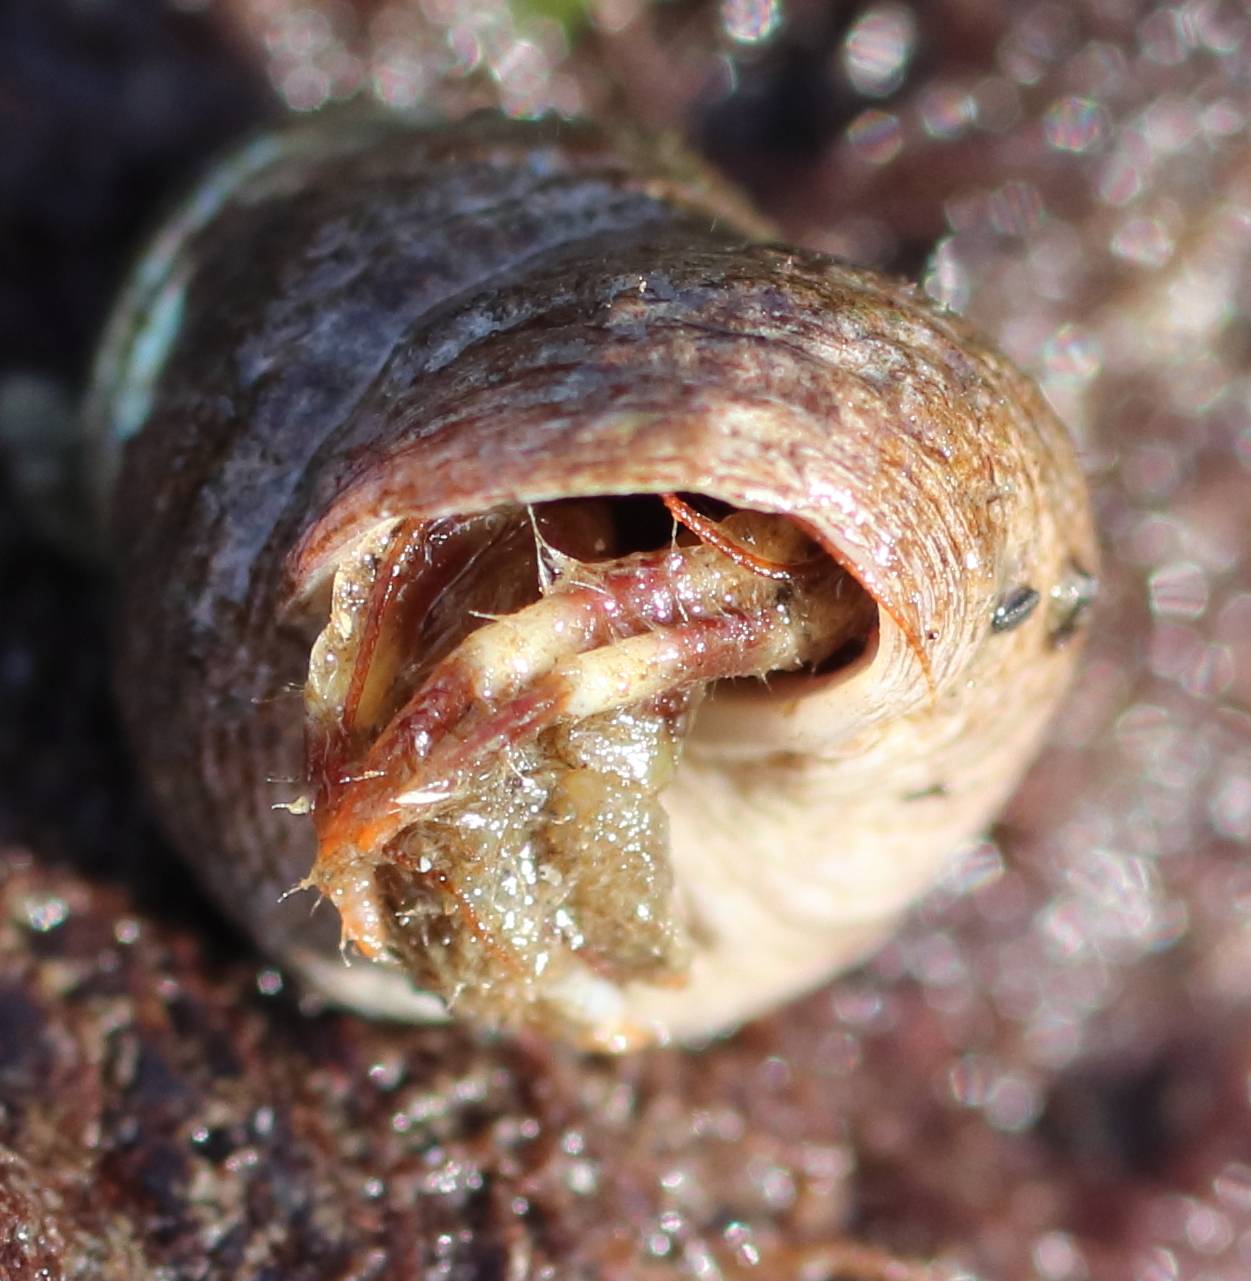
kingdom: Animalia
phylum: Arthropoda
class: Malacostraca
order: Decapoda
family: Paguridae
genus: Pagurus
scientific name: Pagurus caurinus
